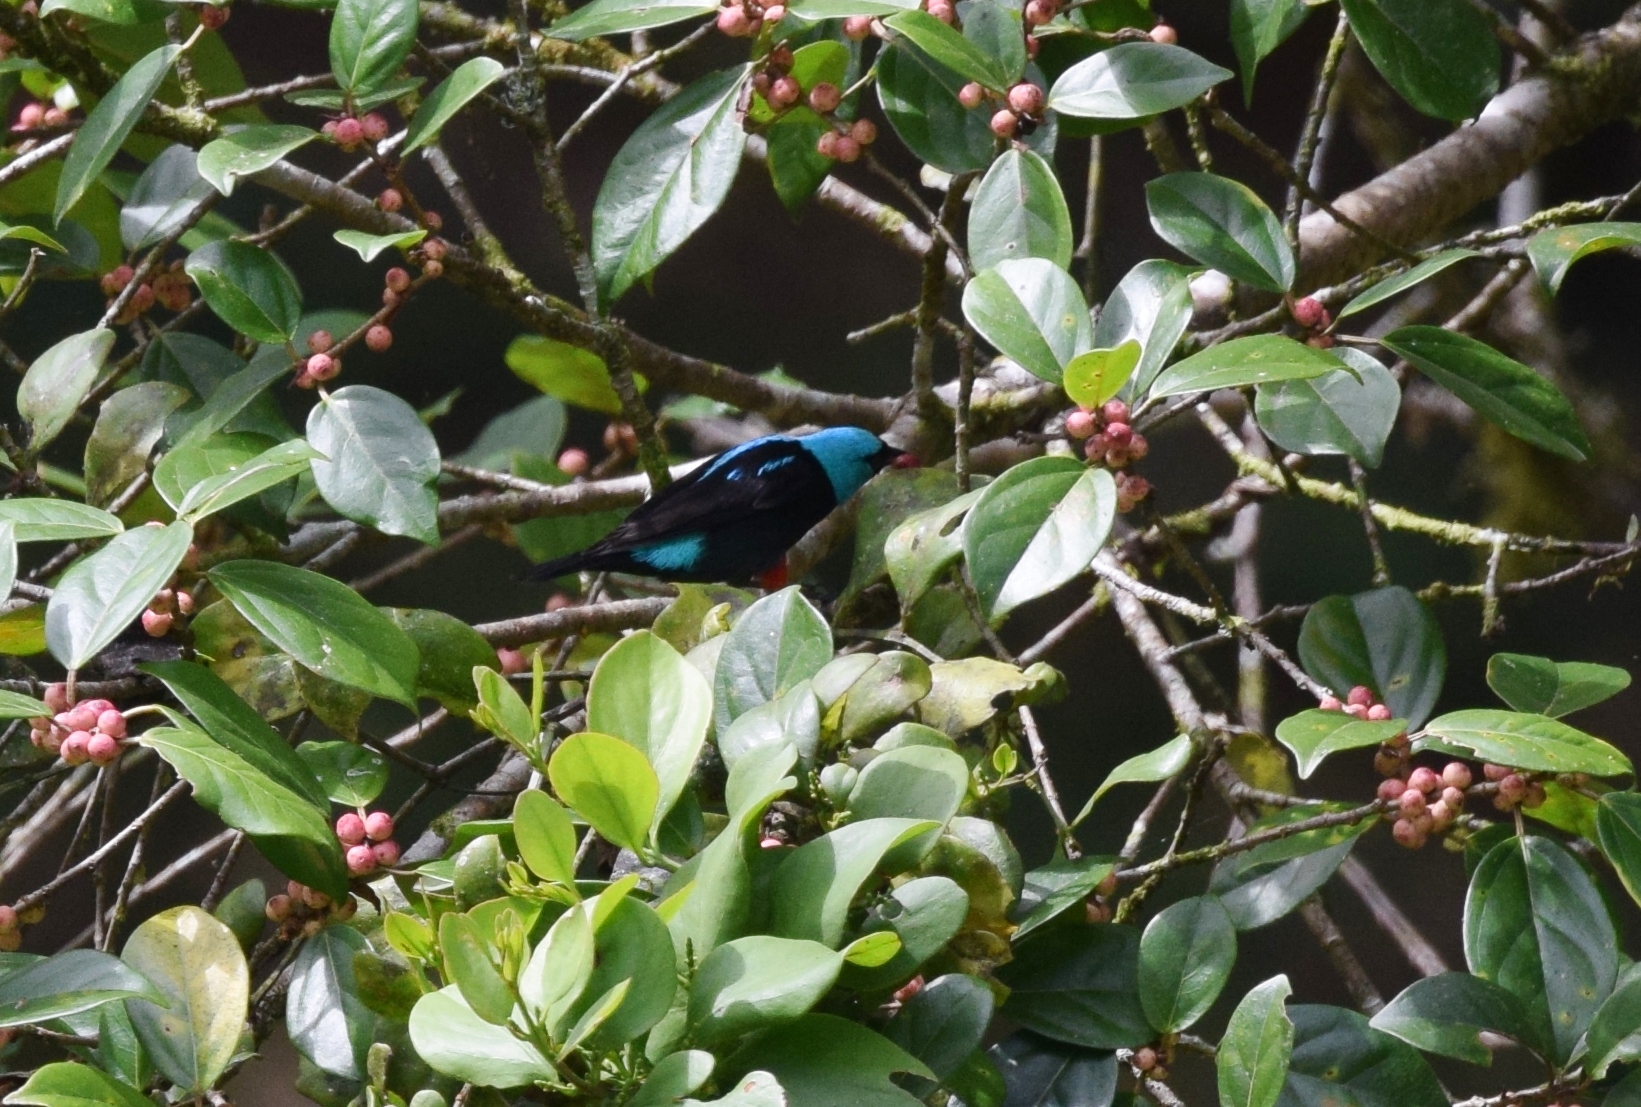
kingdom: Animalia
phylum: Chordata
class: Aves
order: Passeriformes
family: Thraupidae
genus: Dacnis
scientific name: Dacnis venusta
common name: Scarlet-thighed dacnis
